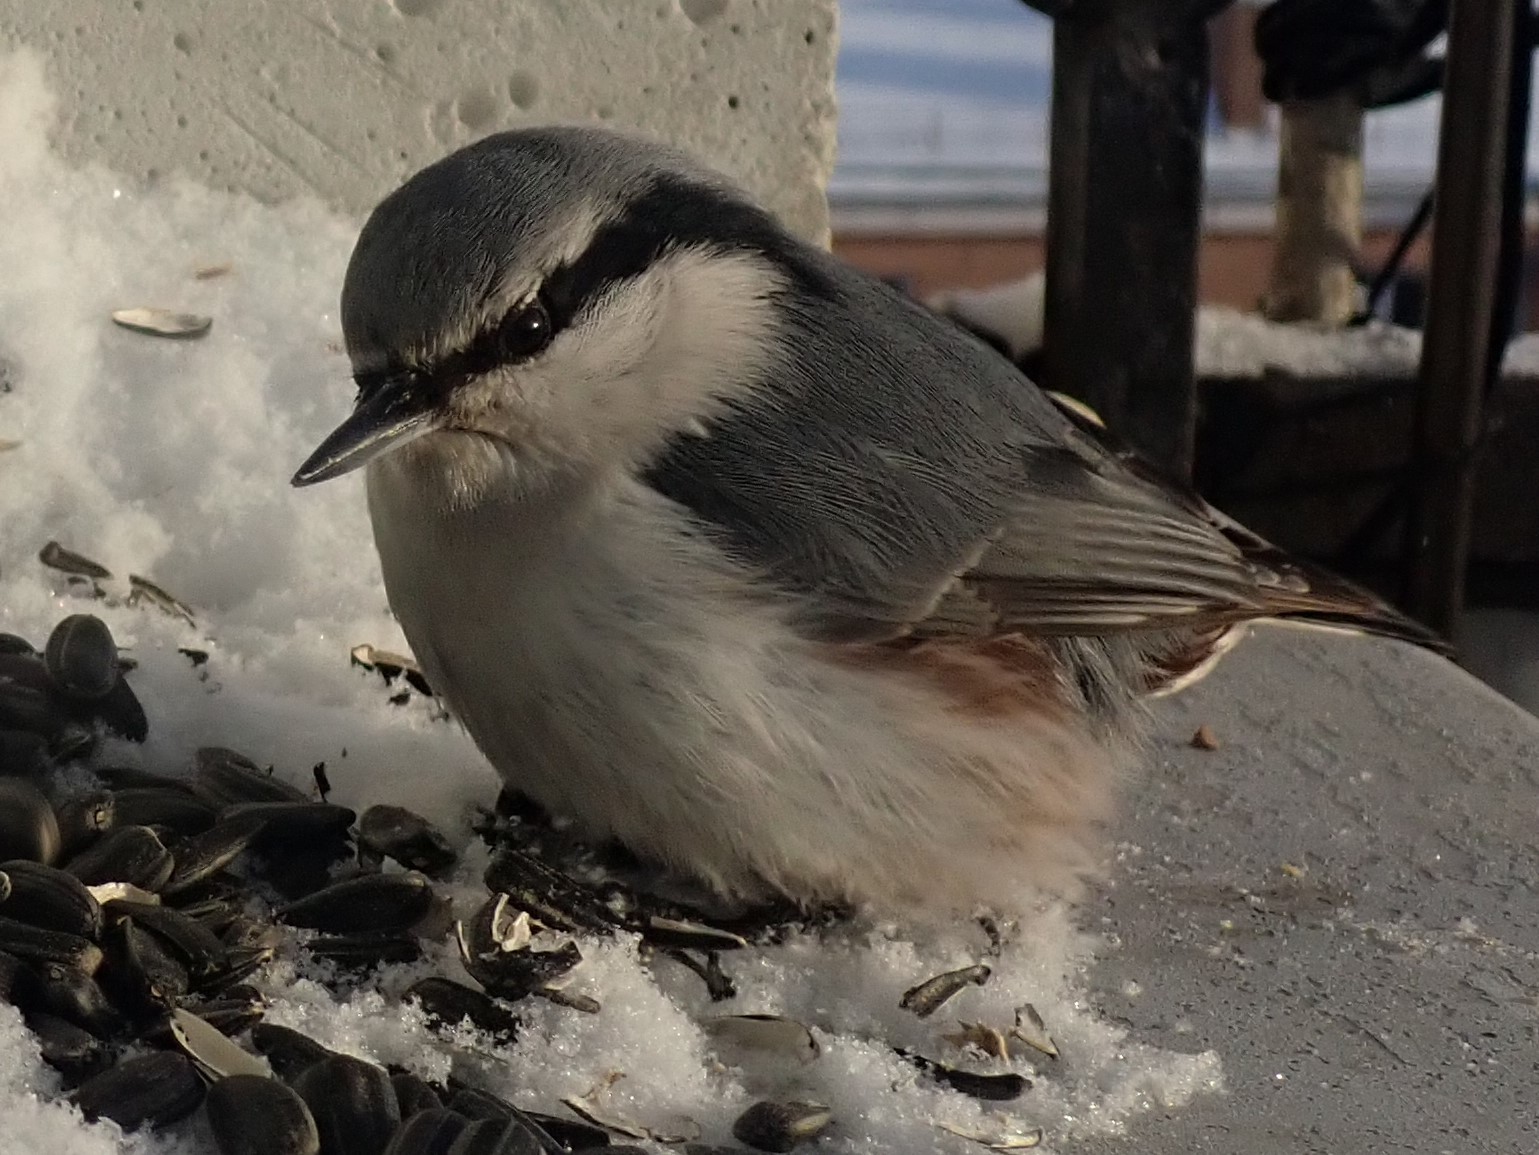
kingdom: Animalia
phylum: Chordata
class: Aves
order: Passeriformes
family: Sittidae
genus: Sitta
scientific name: Sitta europaea
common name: Eurasian nuthatch
